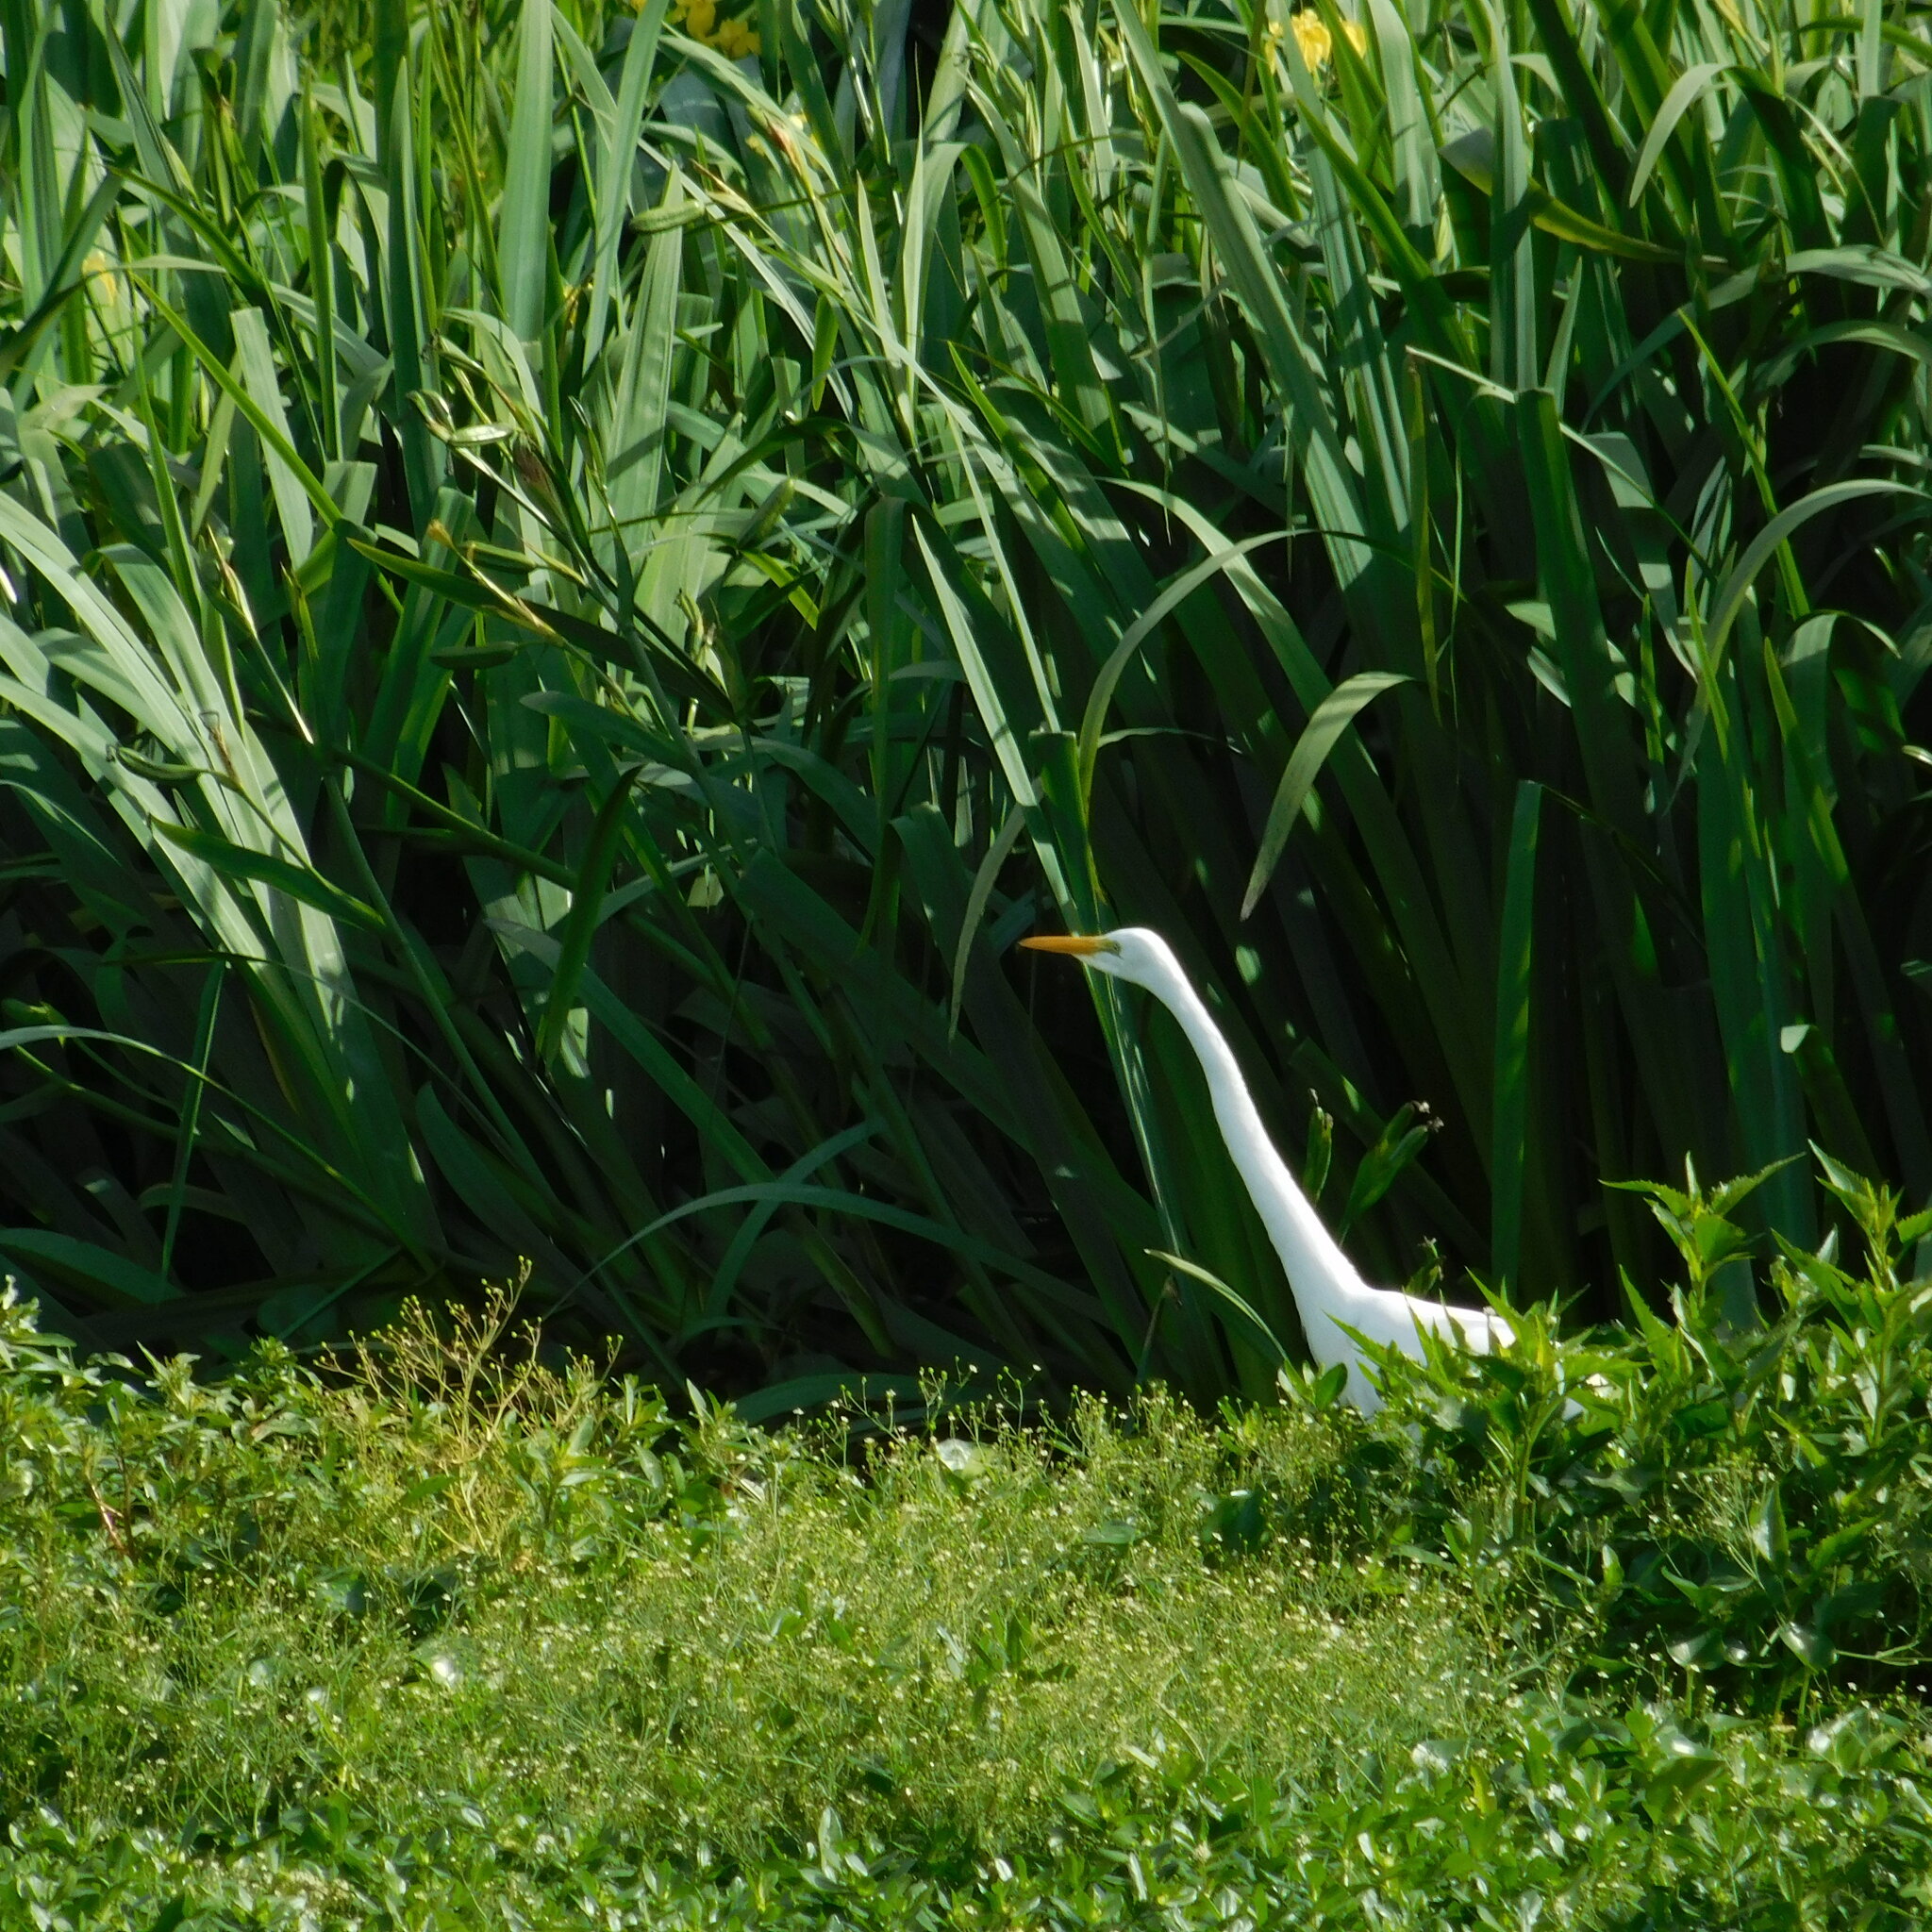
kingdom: Animalia
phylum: Chordata
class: Aves
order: Pelecaniformes
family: Ardeidae
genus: Ardea
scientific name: Ardea alba
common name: Great egret
